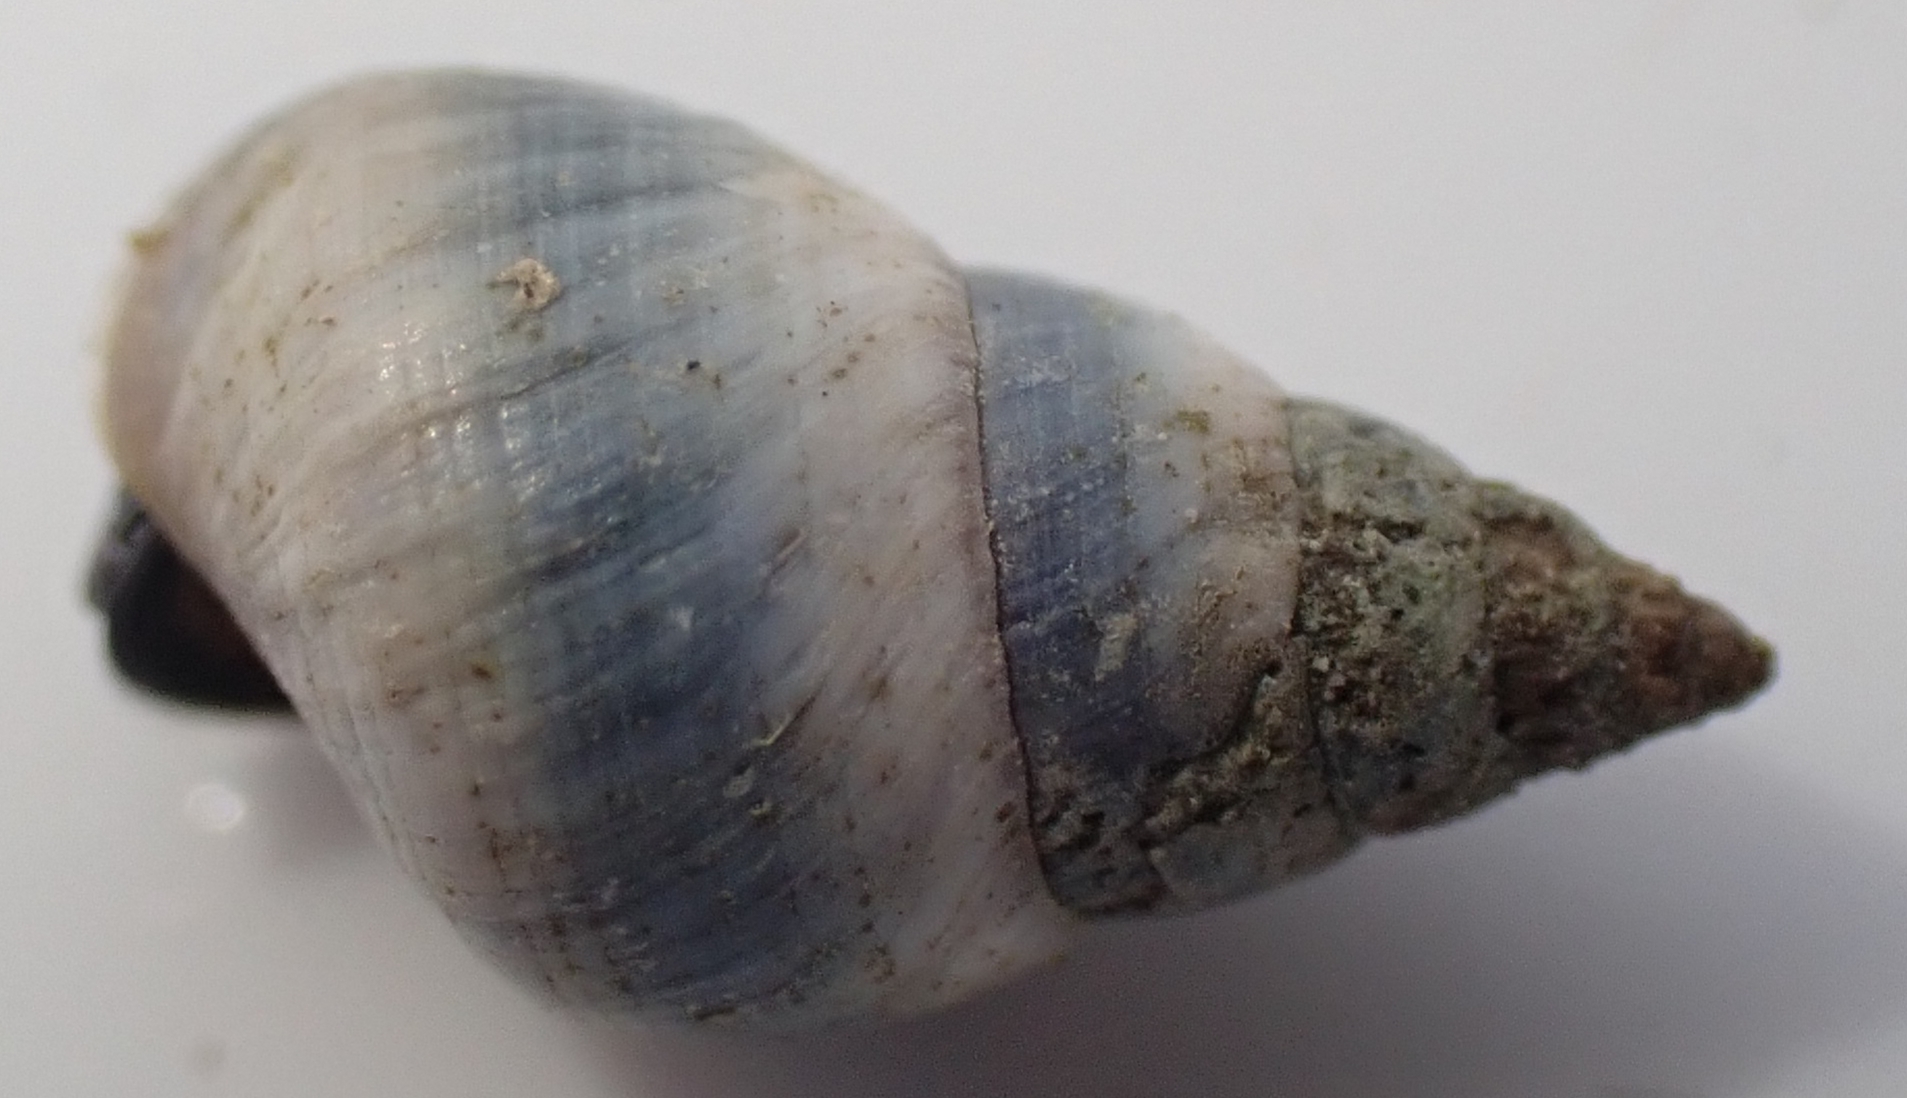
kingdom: Animalia
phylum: Mollusca
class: Gastropoda
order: Littorinimorpha
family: Littorinidae
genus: Austrolittorina
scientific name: Austrolittorina antipodum
